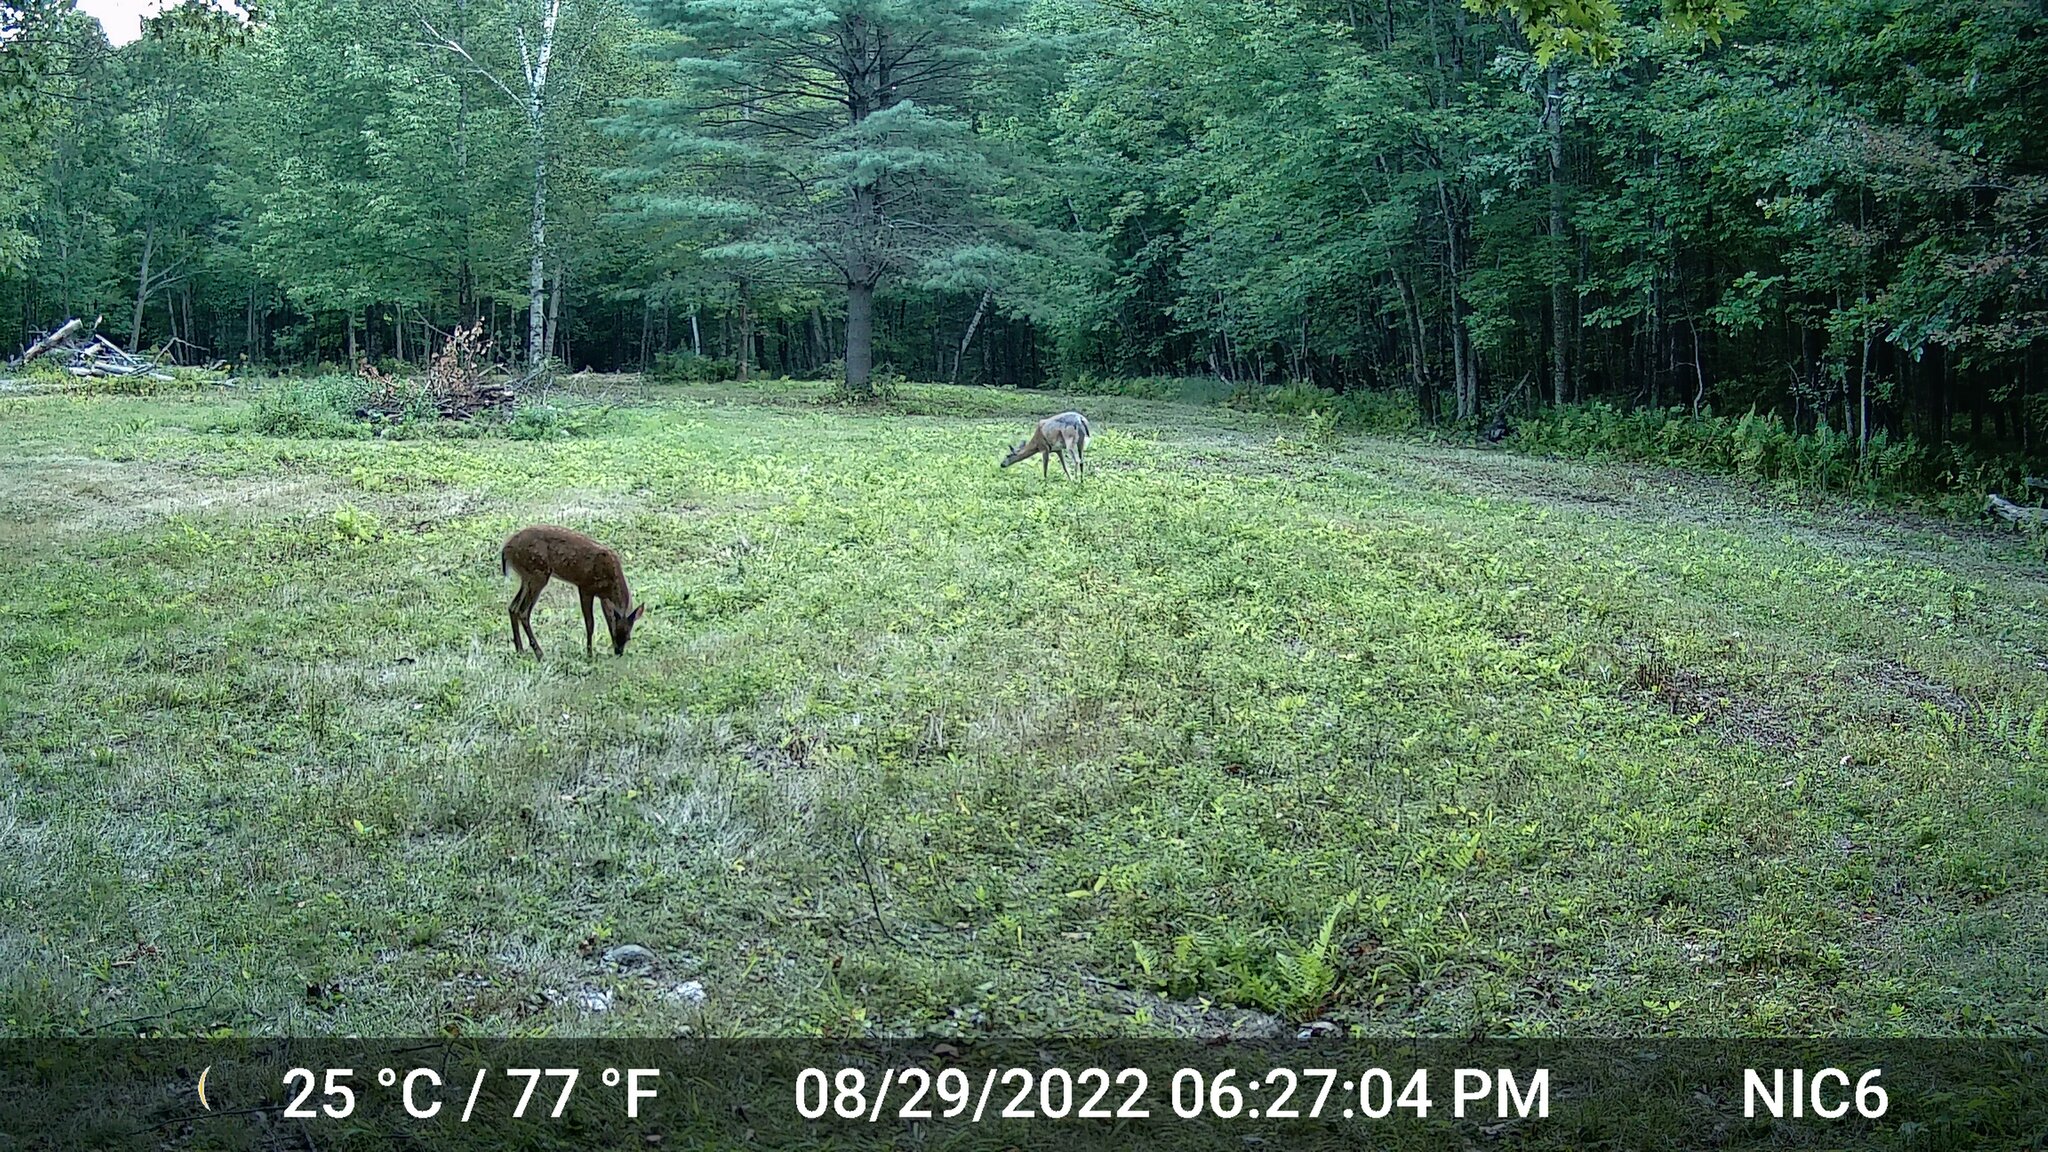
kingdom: Animalia
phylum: Chordata
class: Mammalia
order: Artiodactyla
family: Cervidae
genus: Odocoileus
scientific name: Odocoileus virginianus
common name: White-tailed deer
